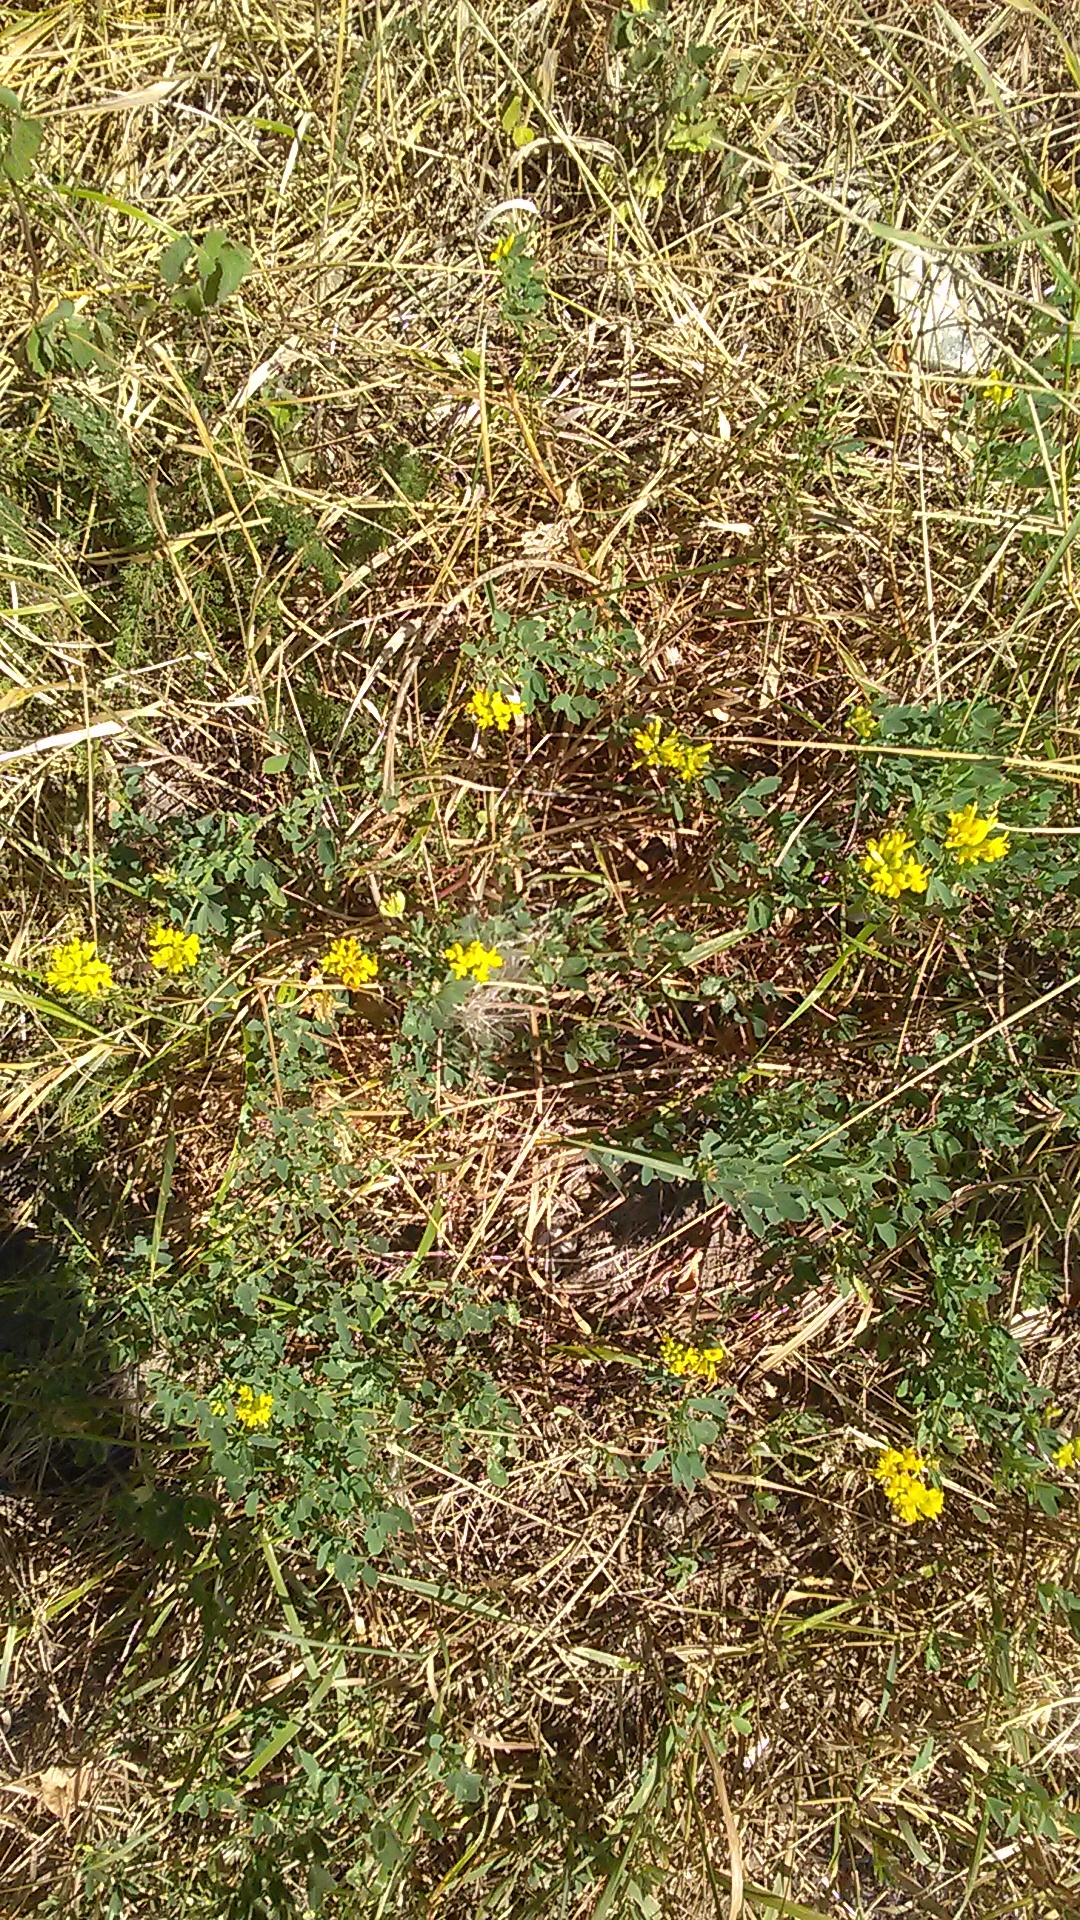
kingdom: Plantae
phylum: Tracheophyta
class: Magnoliopsida
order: Fabales
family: Fabaceae
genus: Medicago
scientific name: Medicago falcata
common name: Sickle medick
